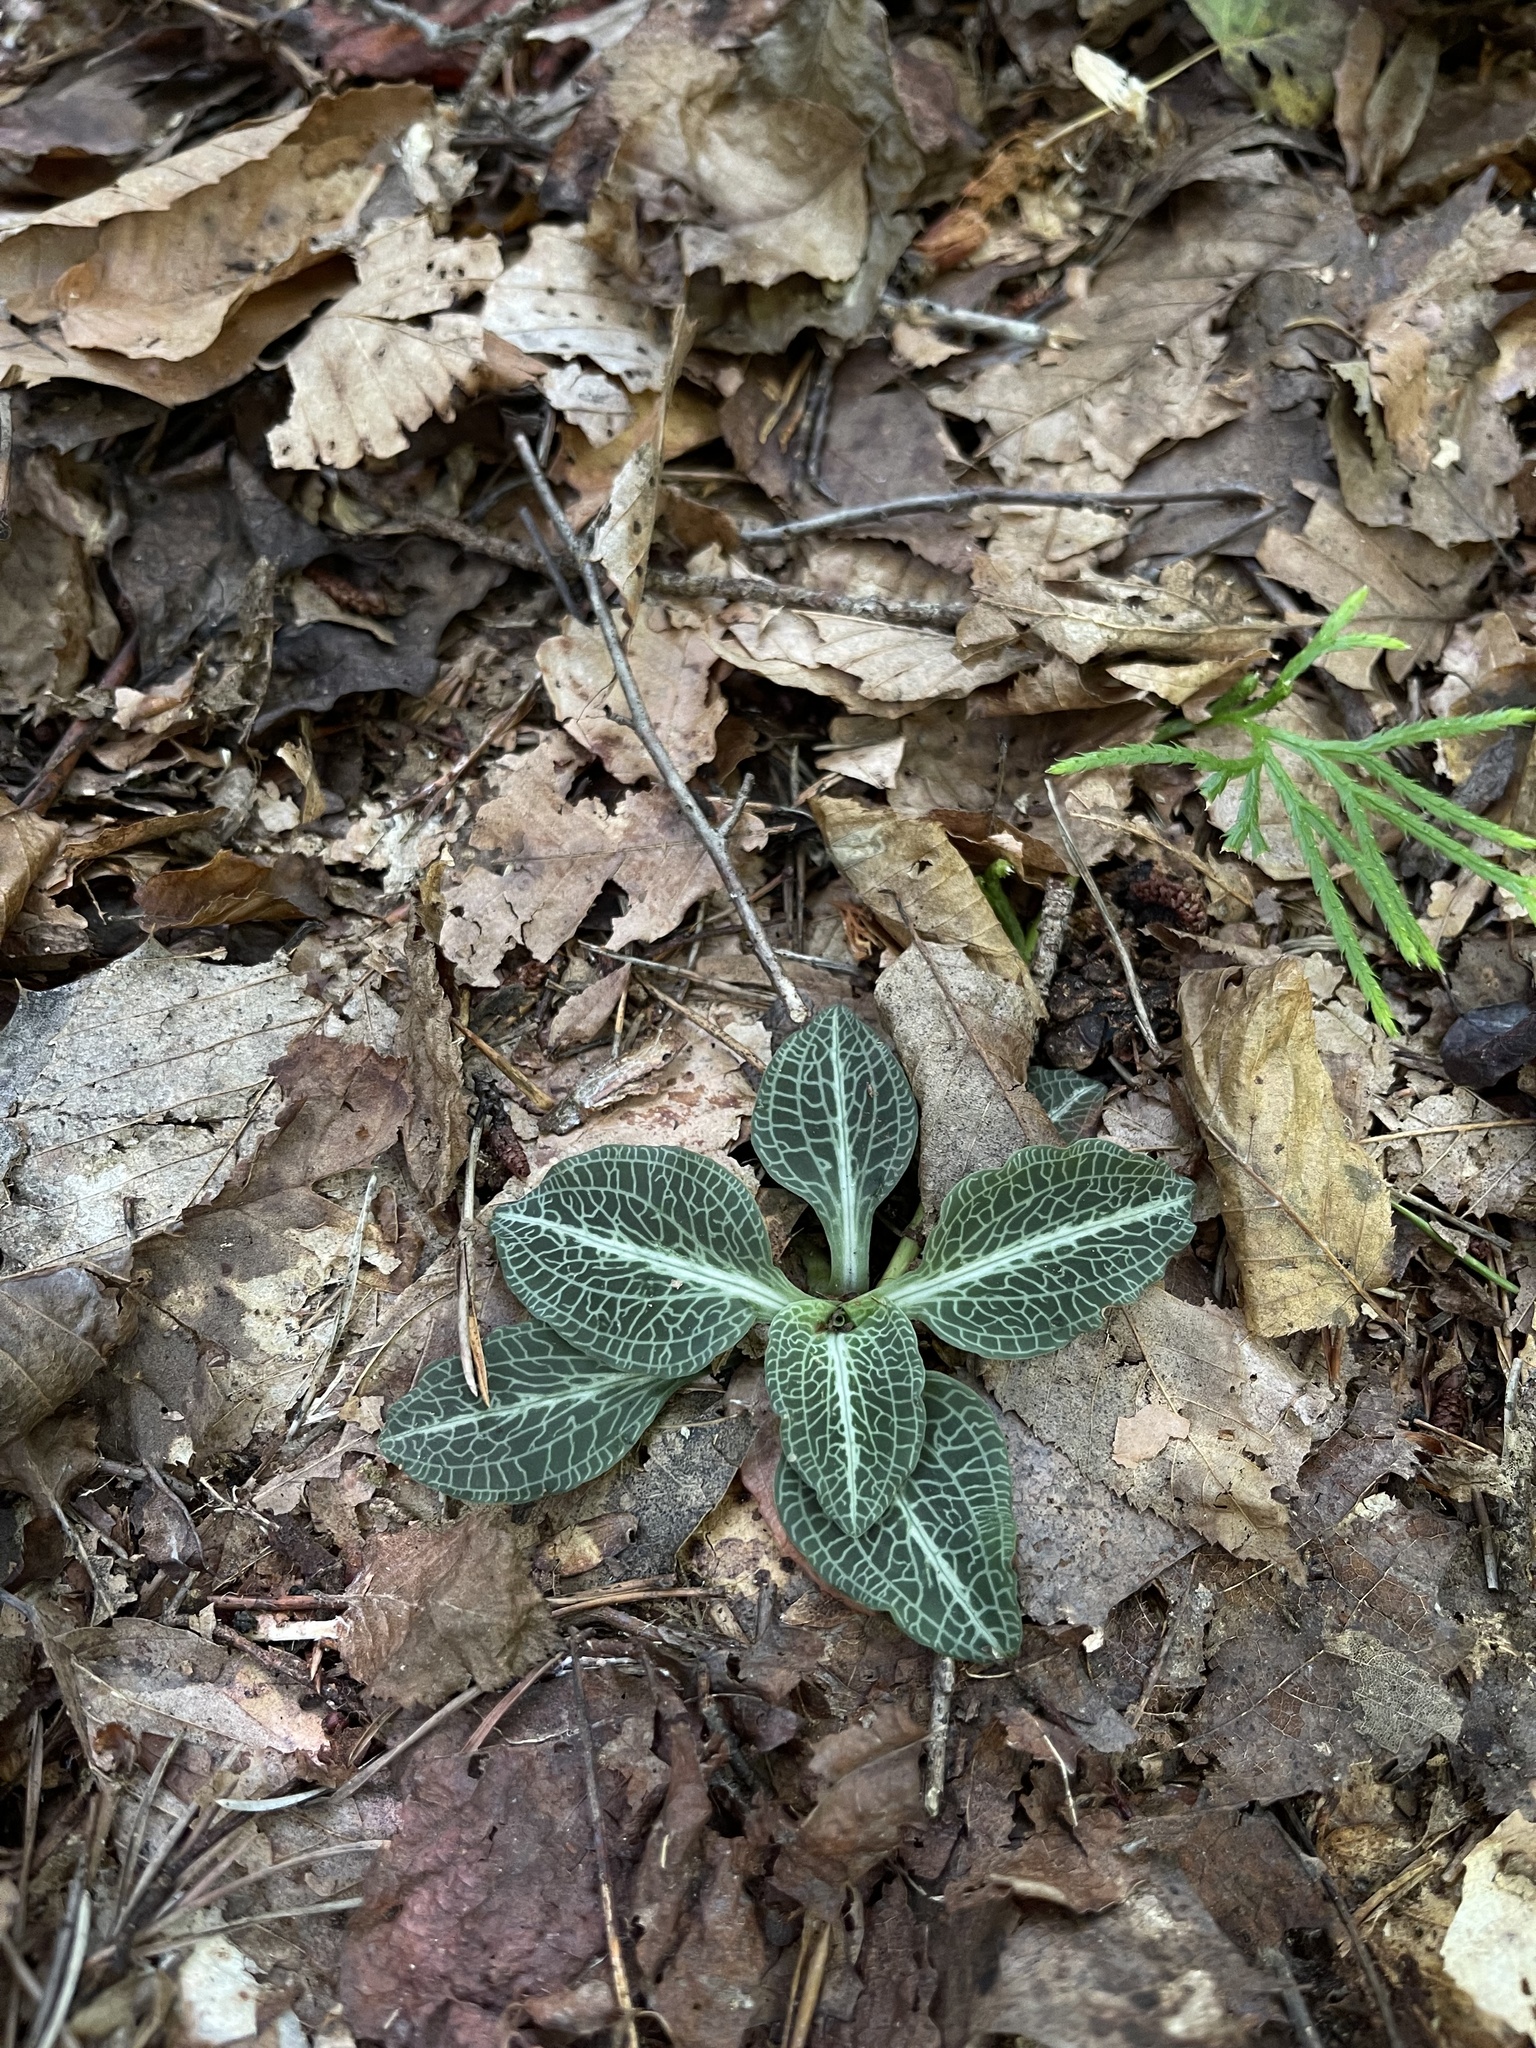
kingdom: Plantae
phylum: Tracheophyta
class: Liliopsida
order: Asparagales
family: Orchidaceae
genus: Goodyera
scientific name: Goodyera pubescens
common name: Downy rattlesnake-plantain
